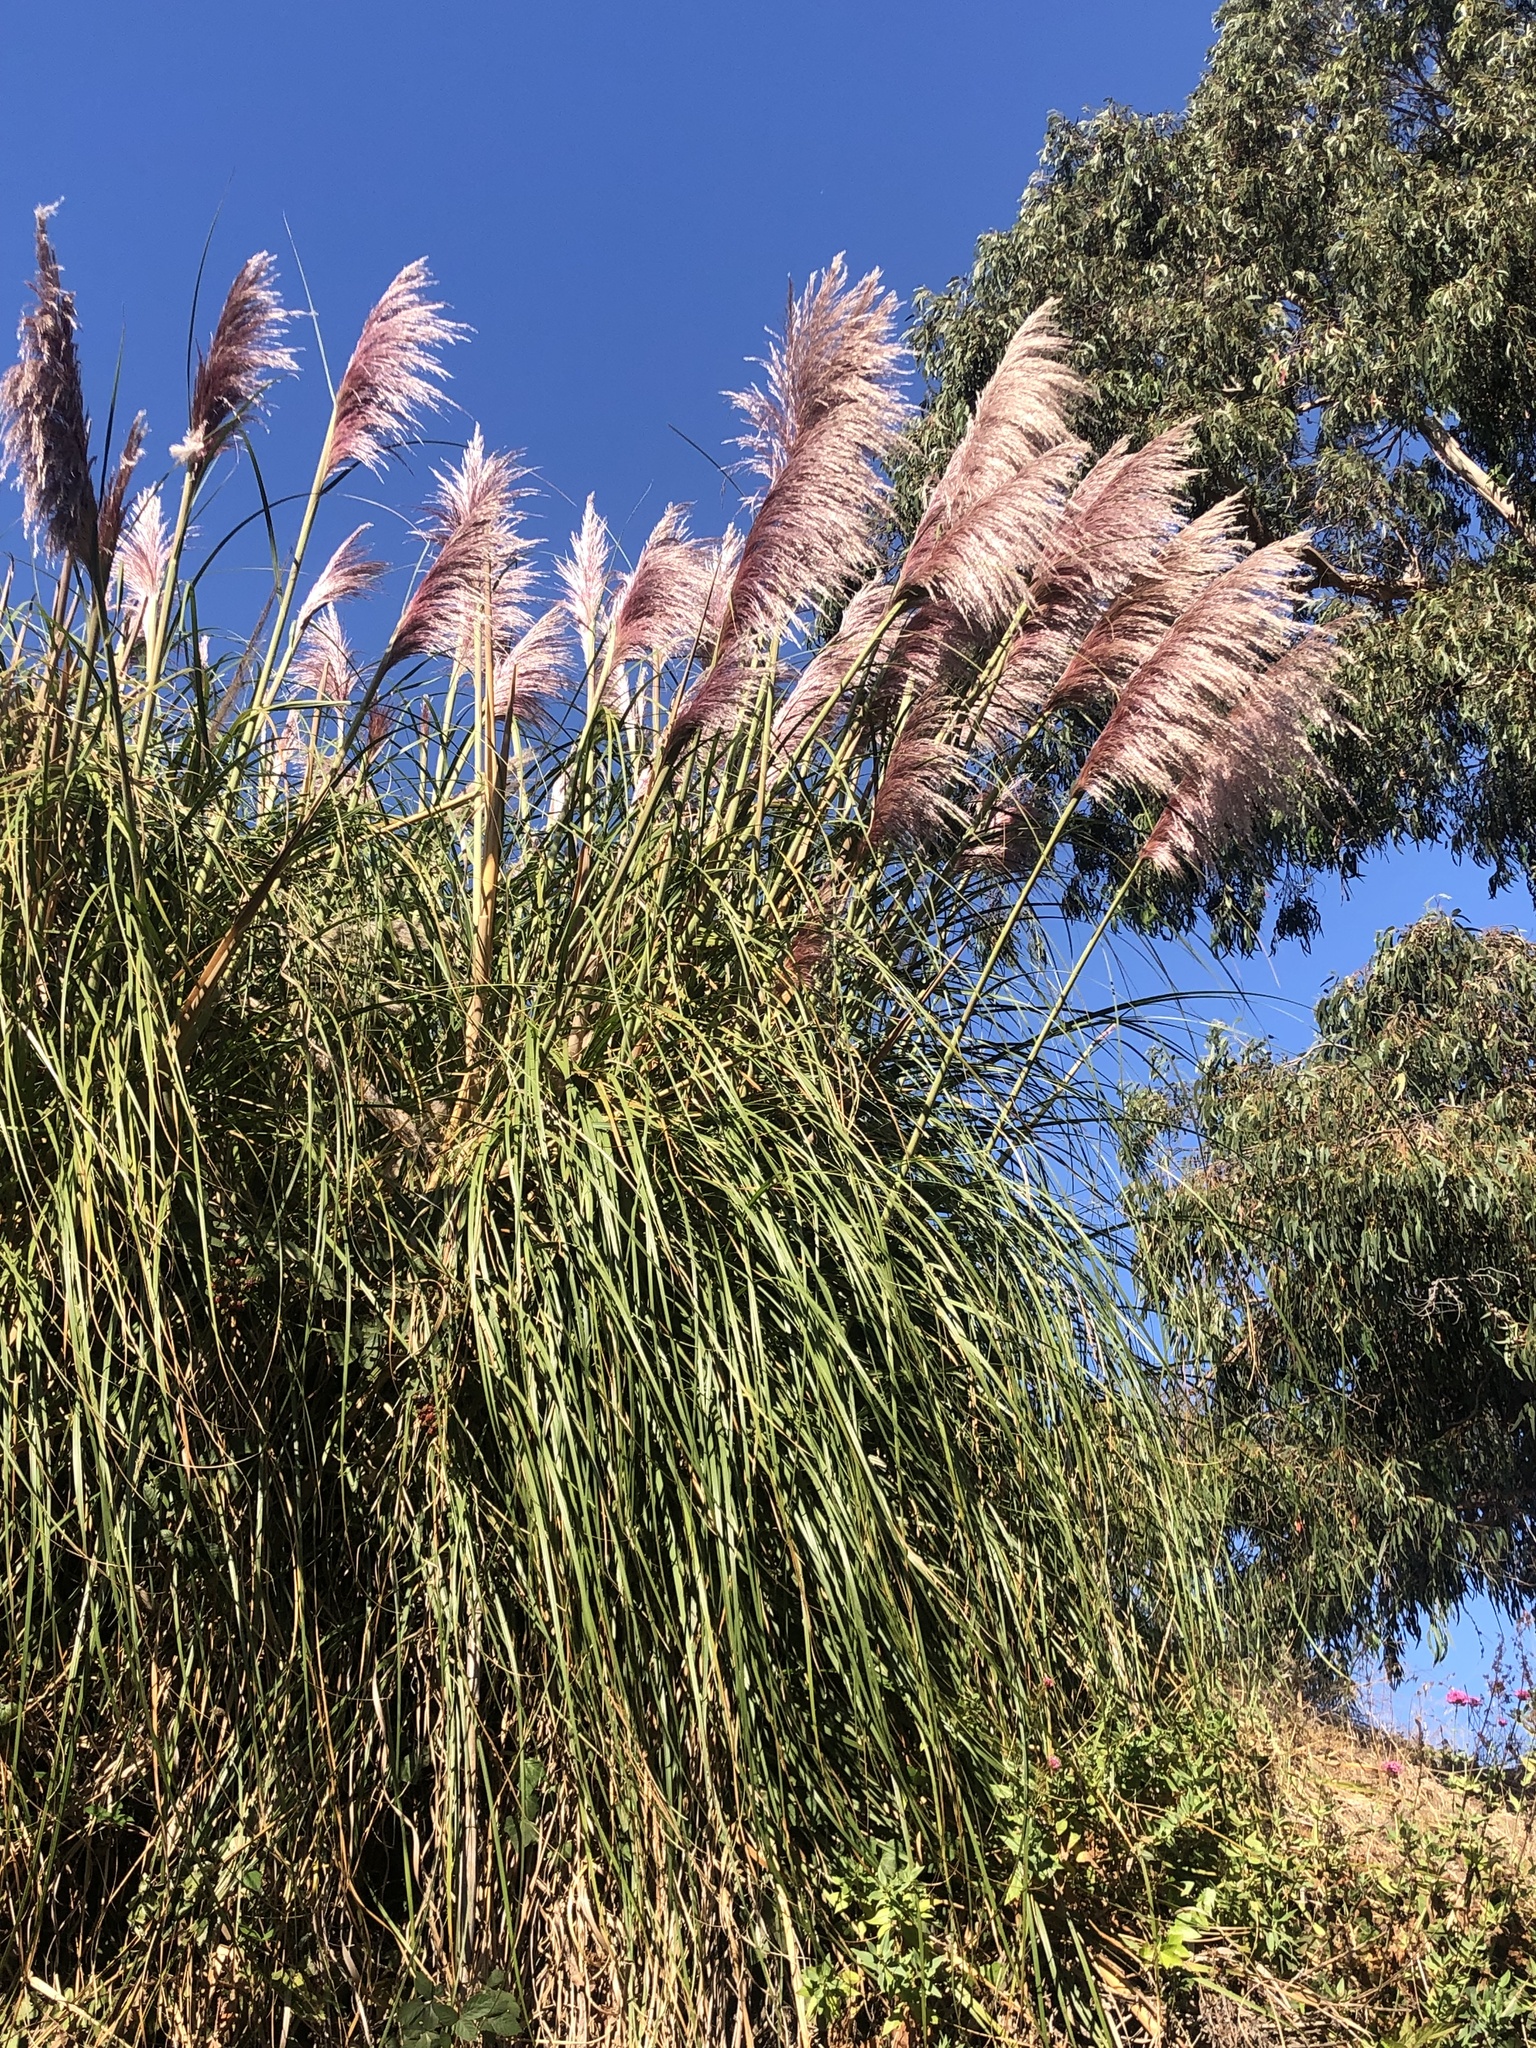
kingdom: Plantae
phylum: Tracheophyta
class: Liliopsida
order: Poales
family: Poaceae
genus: Cortaderia
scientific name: Cortaderia jubata
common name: Purple pampas grass
